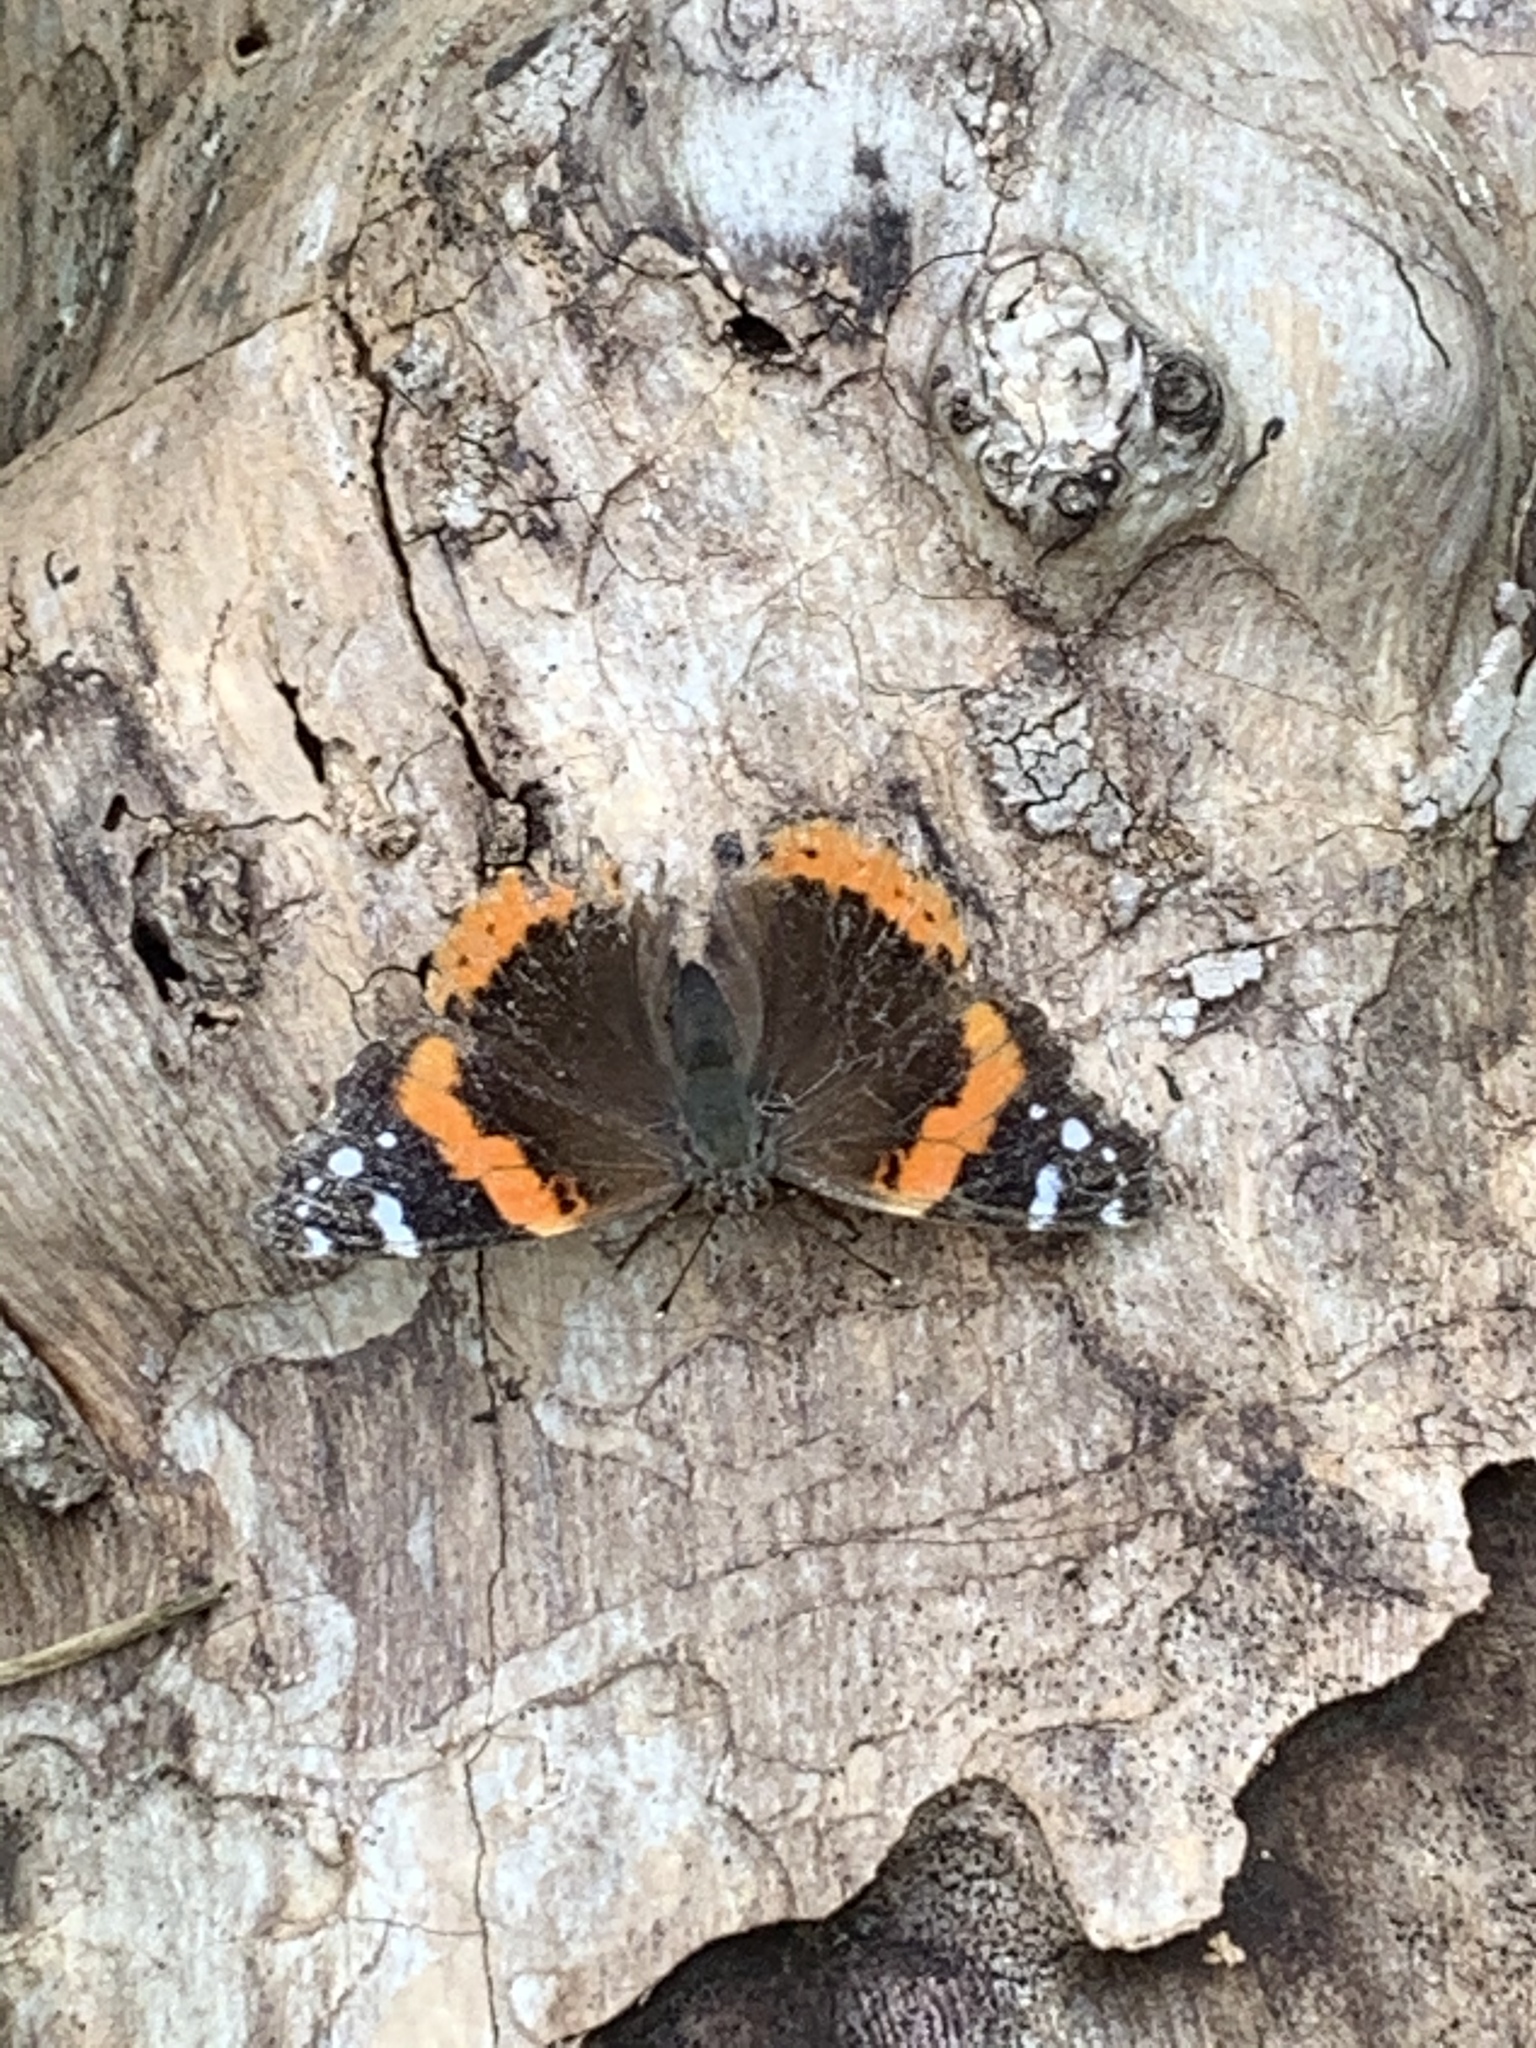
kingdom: Animalia
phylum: Arthropoda
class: Insecta
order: Lepidoptera
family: Nymphalidae
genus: Vanessa
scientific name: Vanessa atalanta
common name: Red admiral
